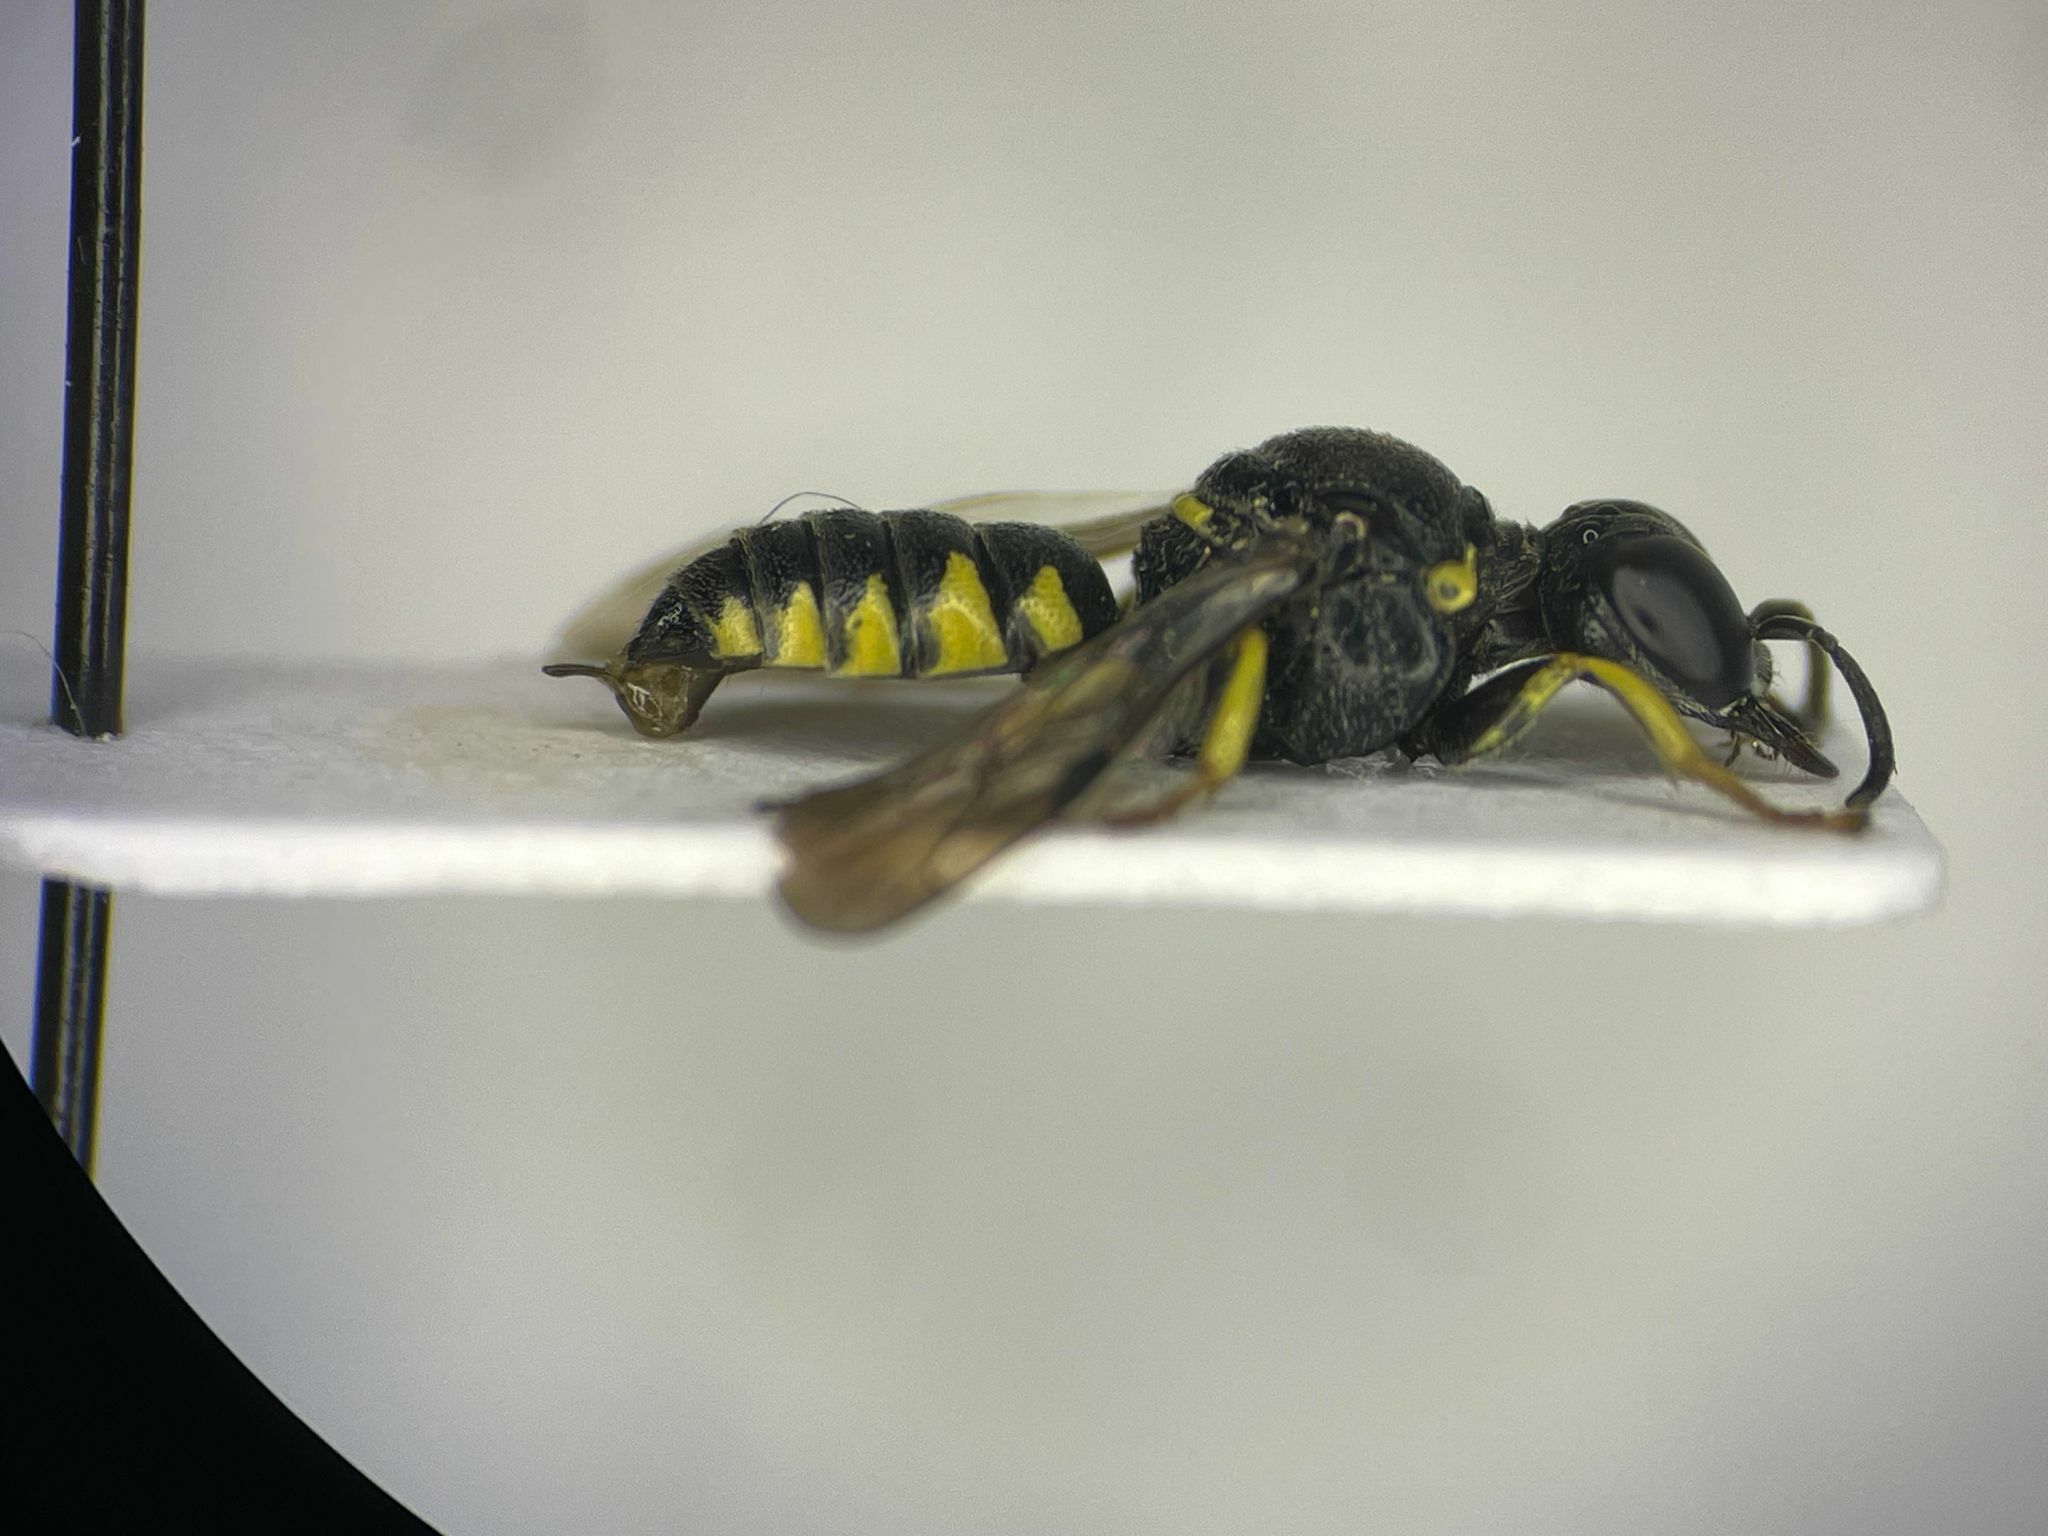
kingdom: Animalia
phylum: Arthropoda
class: Insecta
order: Hymenoptera
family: Crabronidae
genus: Anacrabro
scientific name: Anacrabro ocellatus
